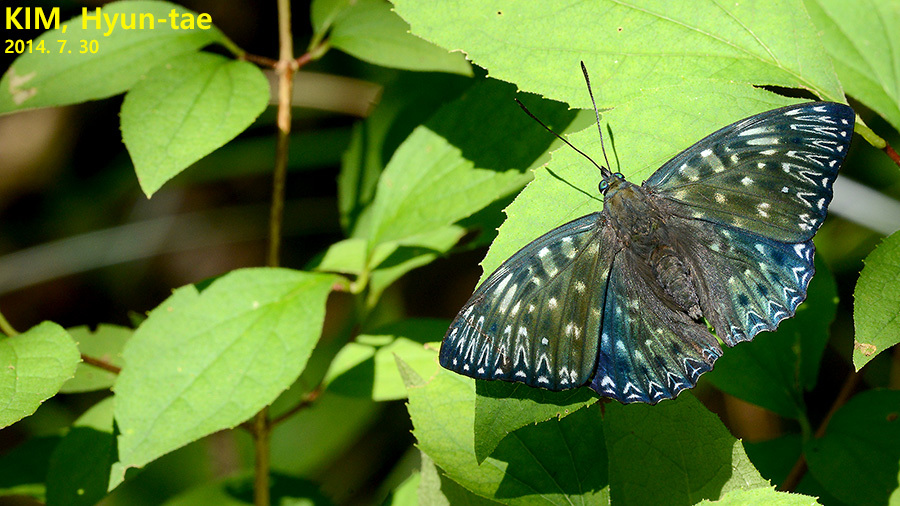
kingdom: Animalia
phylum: Arthropoda
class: Insecta
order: Lepidoptera
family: Nymphalidae
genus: Dichorragia
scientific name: Dichorragia nesimachus
